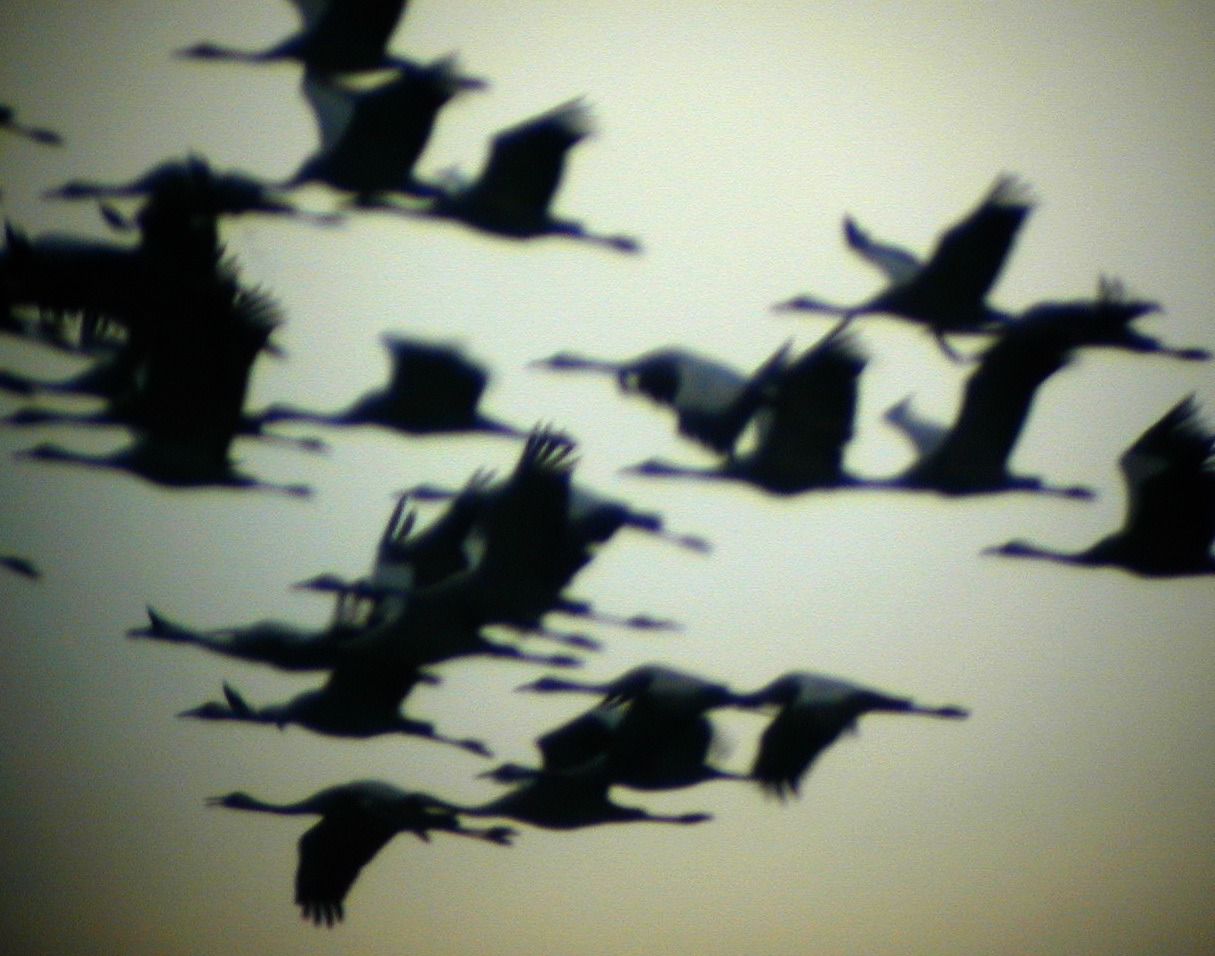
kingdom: Animalia
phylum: Chordata
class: Aves
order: Gruiformes
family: Gruidae
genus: Grus
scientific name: Grus grus
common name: Common crane
